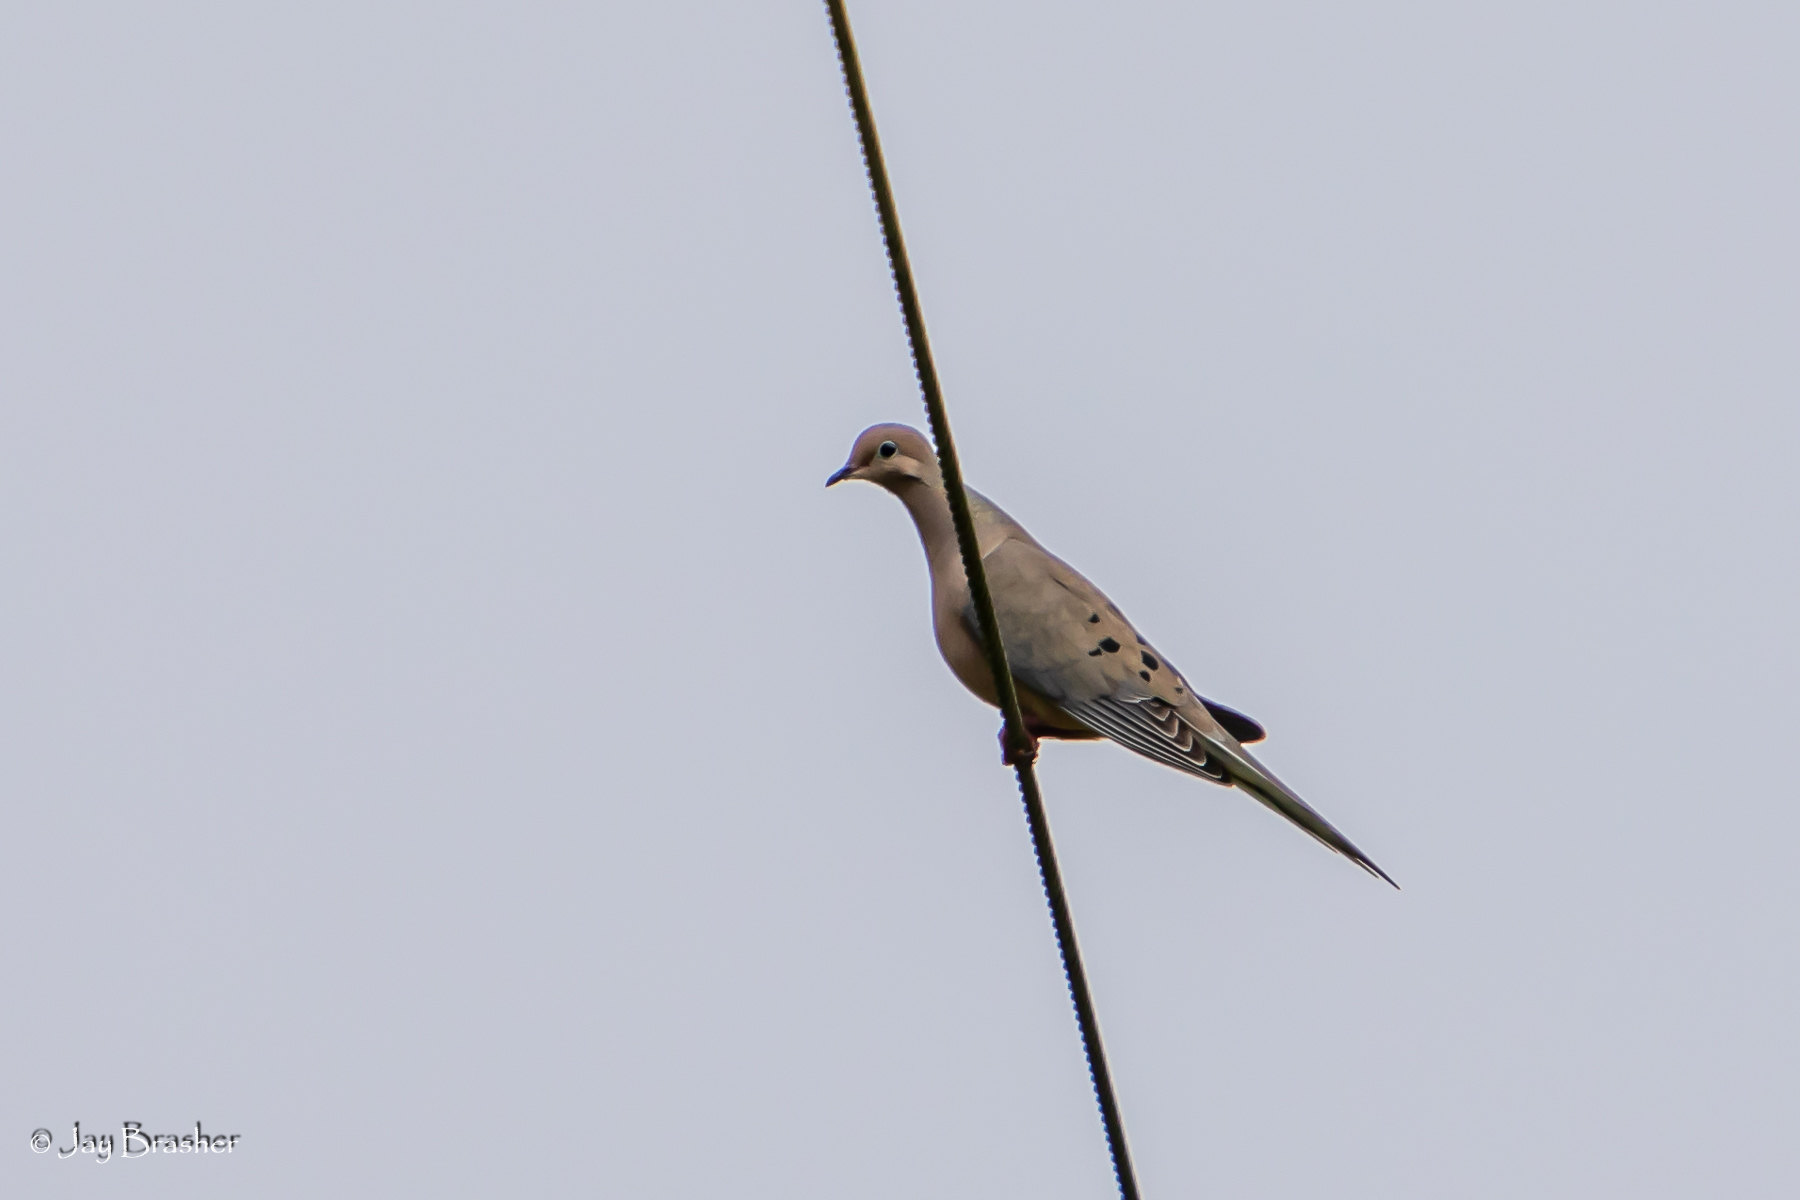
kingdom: Animalia
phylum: Chordata
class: Aves
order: Columbiformes
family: Columbidae
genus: Zenaida
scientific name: Zenaida macroura
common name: Mourning dove
